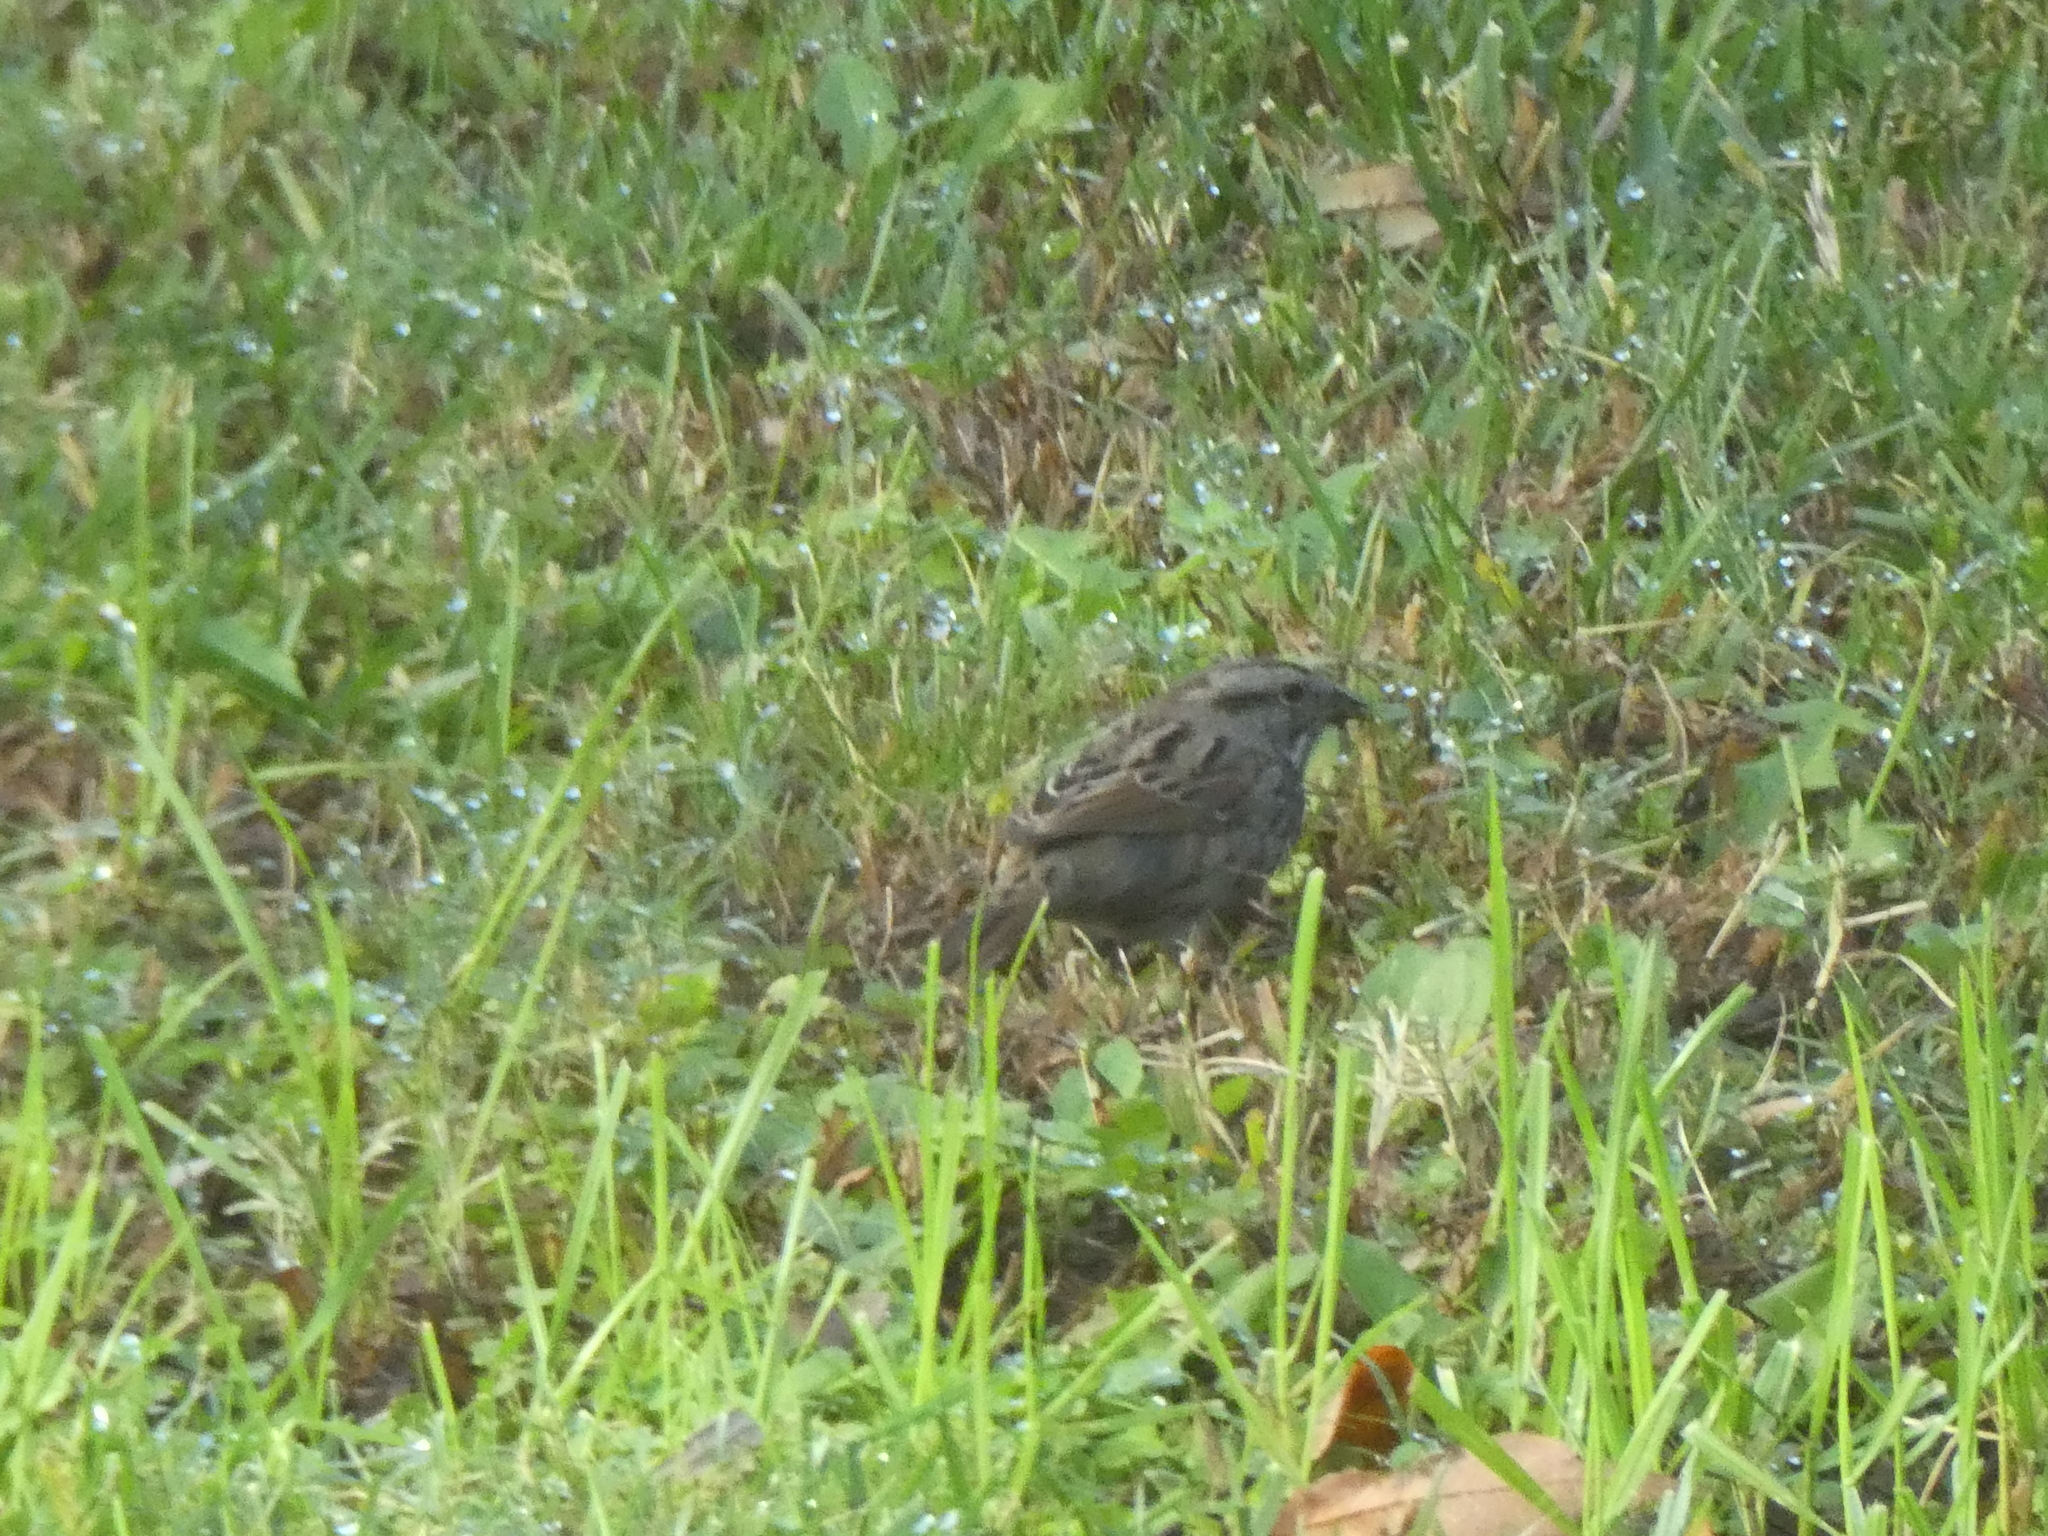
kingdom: Animalia
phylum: Chordata
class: Aves
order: Passeriformes
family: Passerellidae
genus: Melospiza
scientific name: Melospiza melodia
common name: Song sparrow
